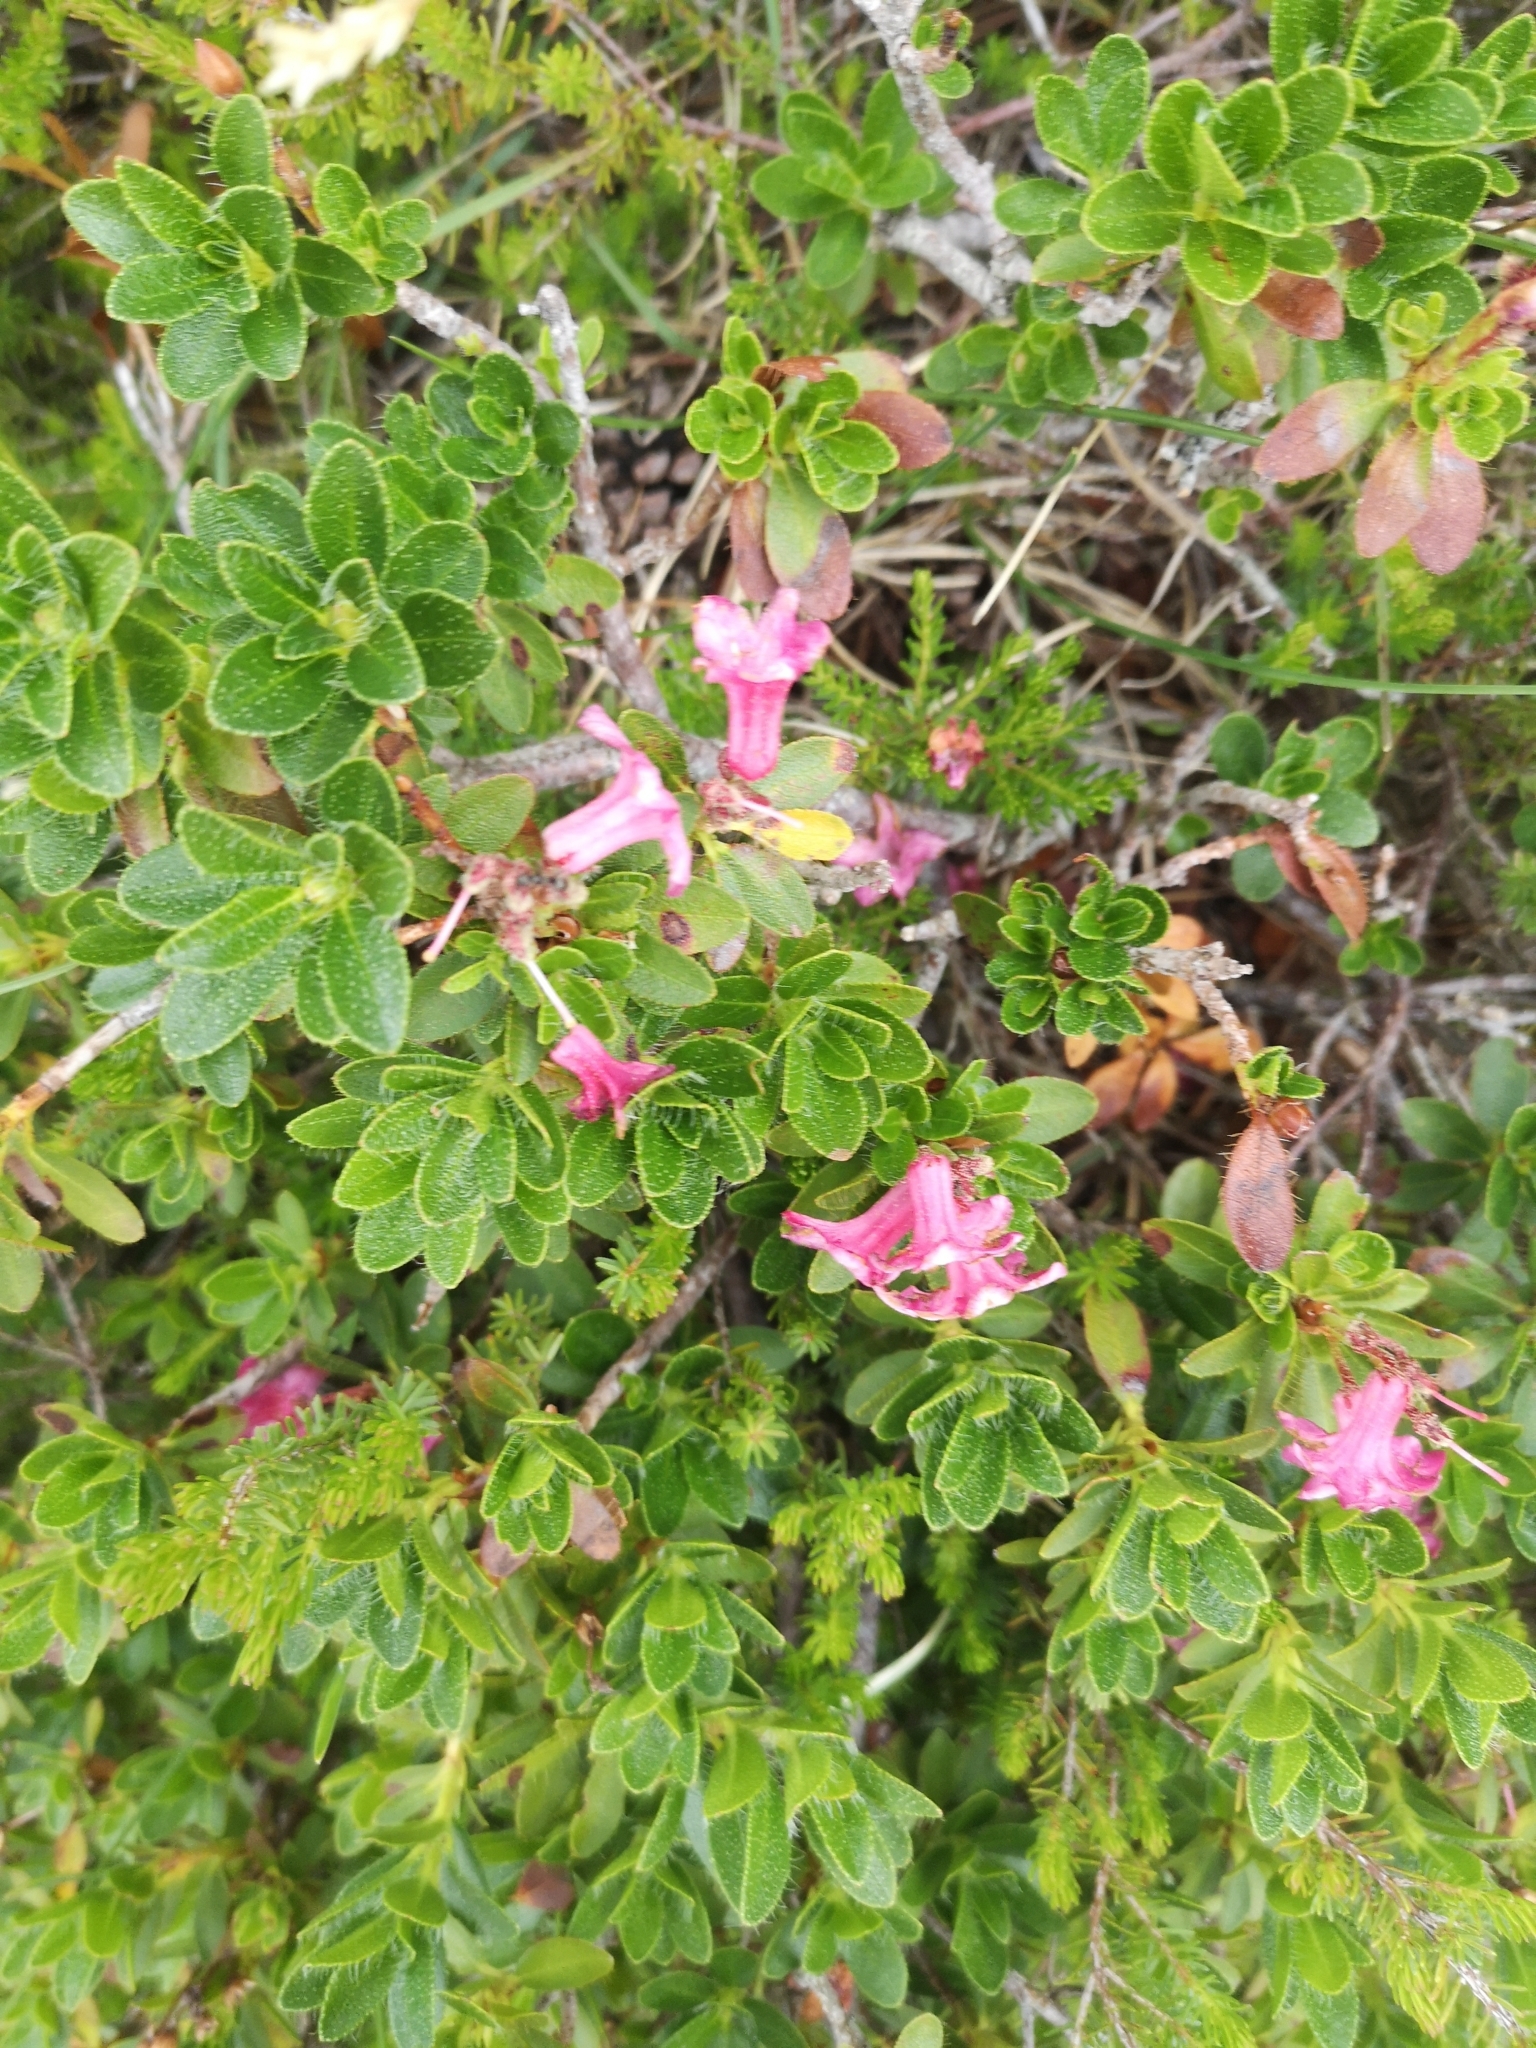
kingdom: Plantae
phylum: Tracheophyta
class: Magnoliopsida
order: Ericales
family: Ericaceae
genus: Rhododendron
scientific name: Rhododendron hirsutum
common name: Hairy alpenrose
